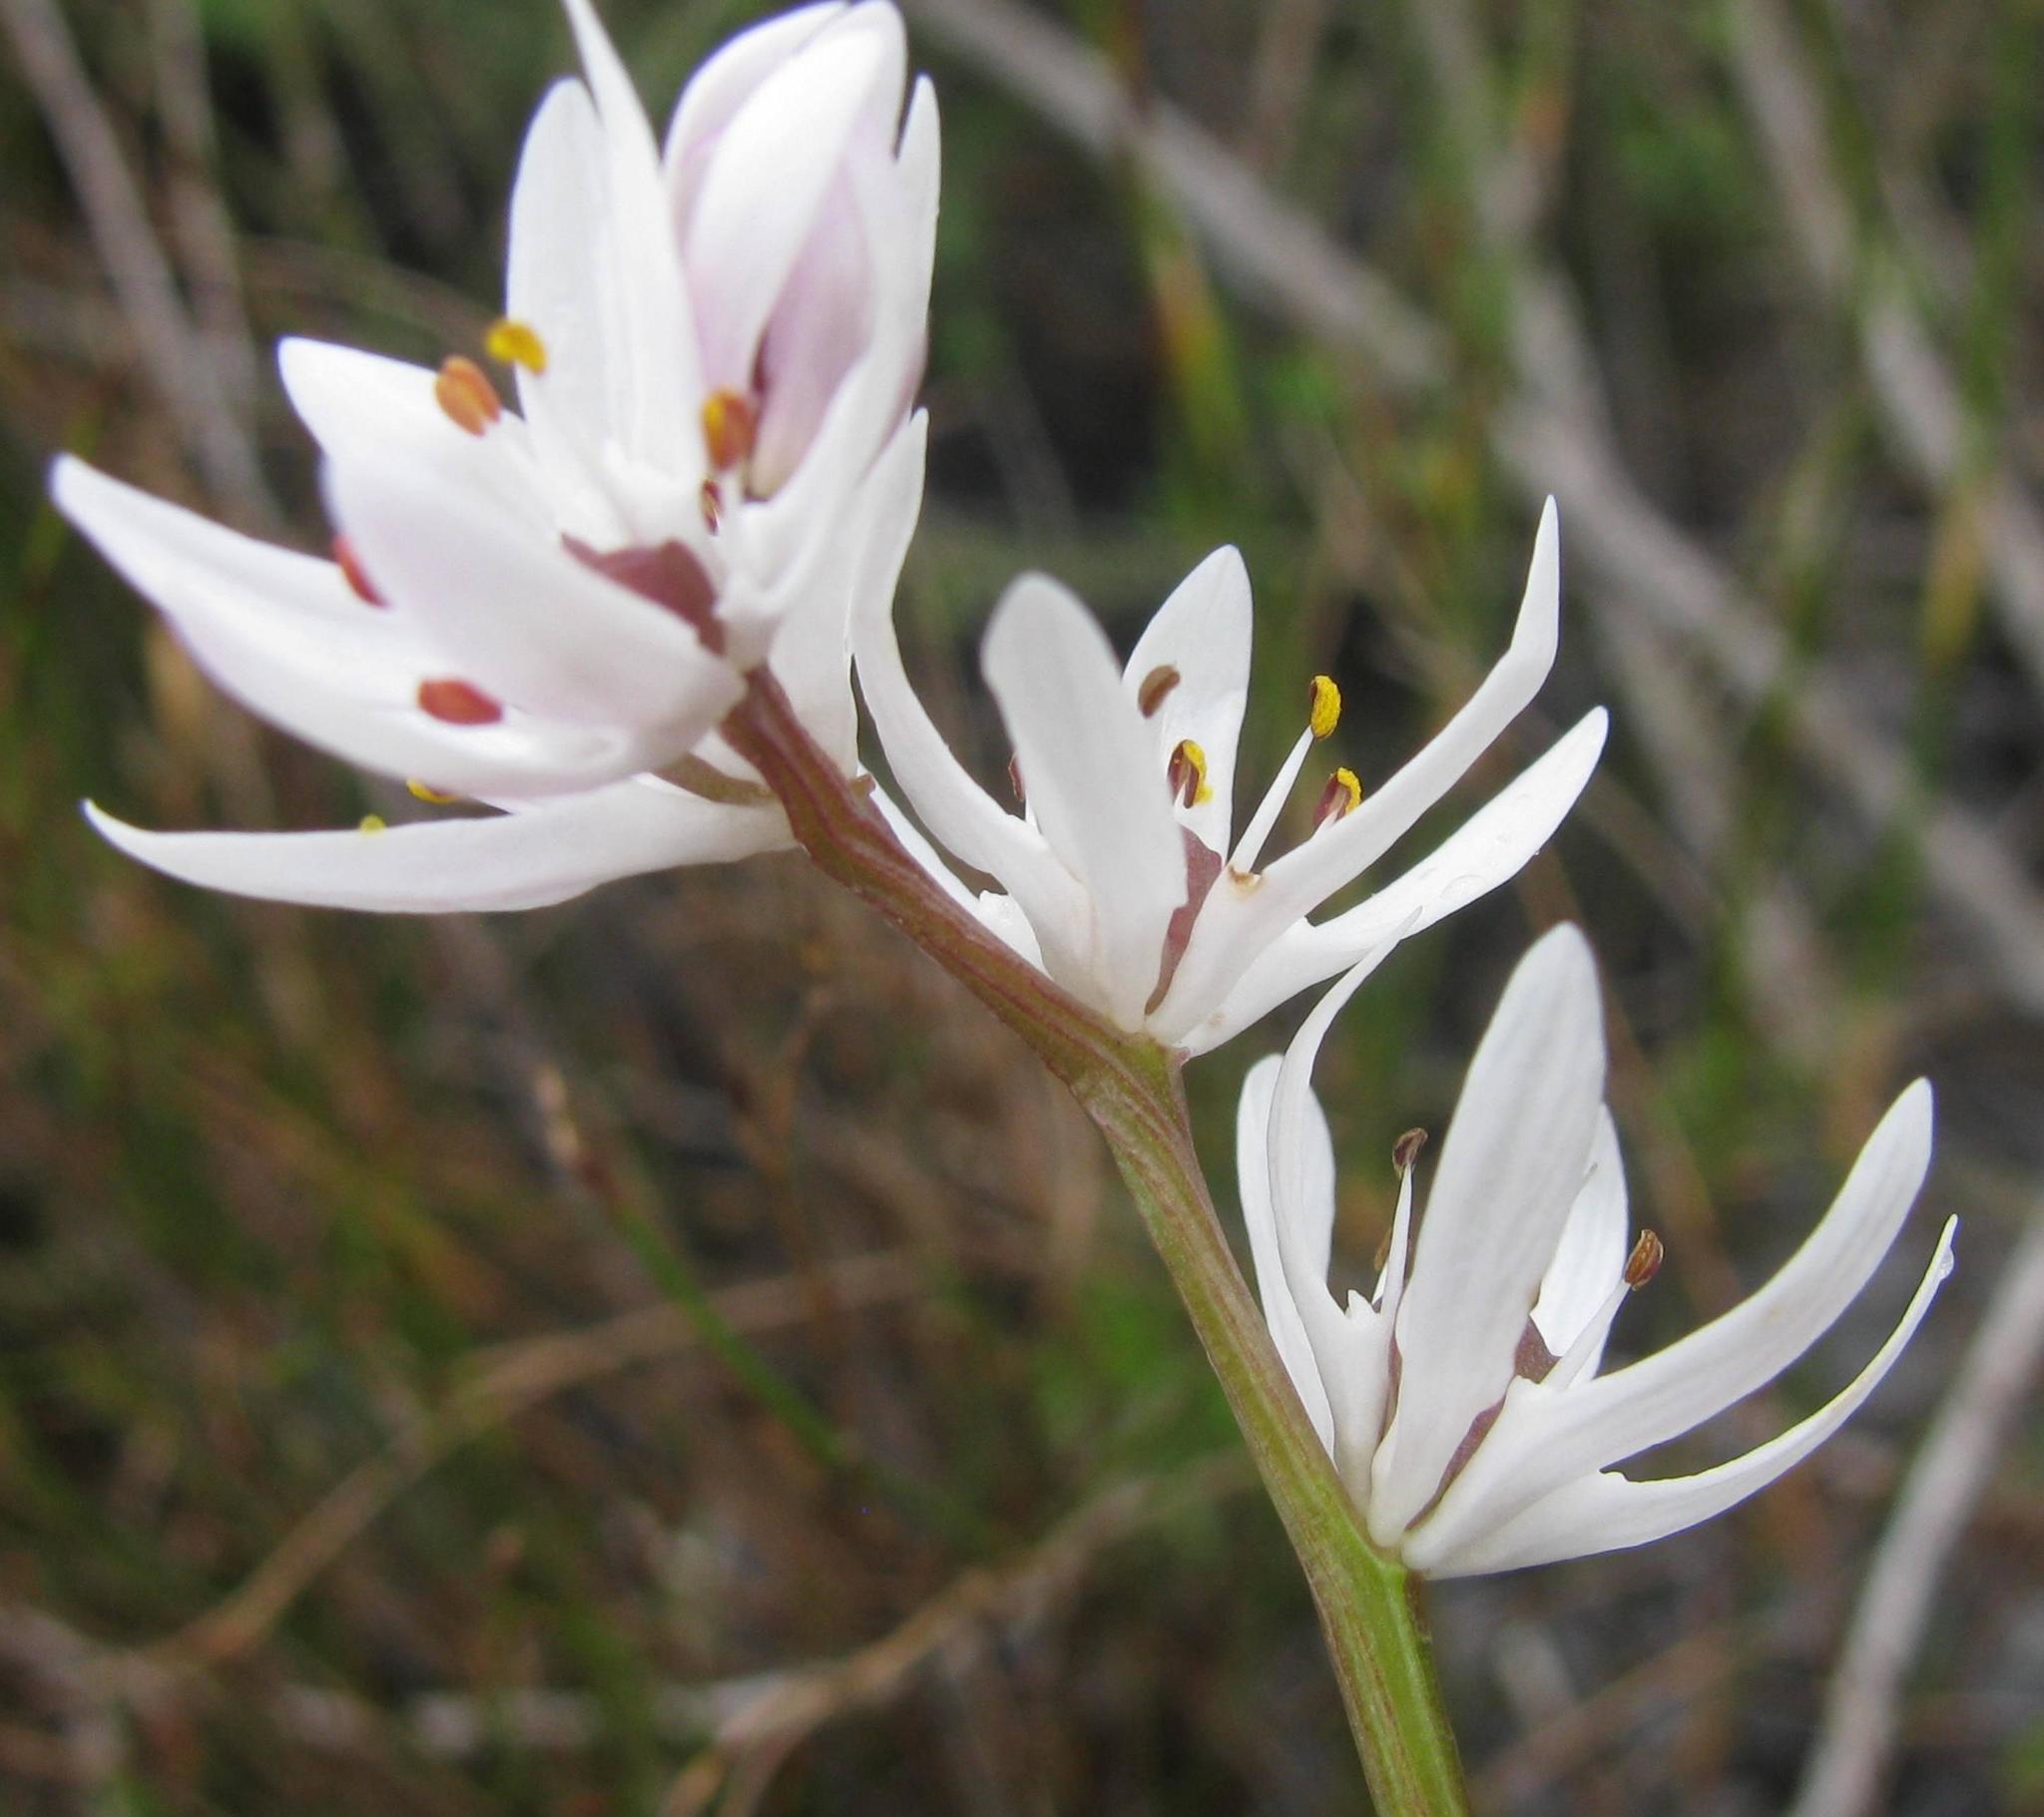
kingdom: Plantae
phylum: Tracheophyta
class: Liliopsida
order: Liliales
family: Colchicaceae
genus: Wurmbea
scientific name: Wurmbea punctata
